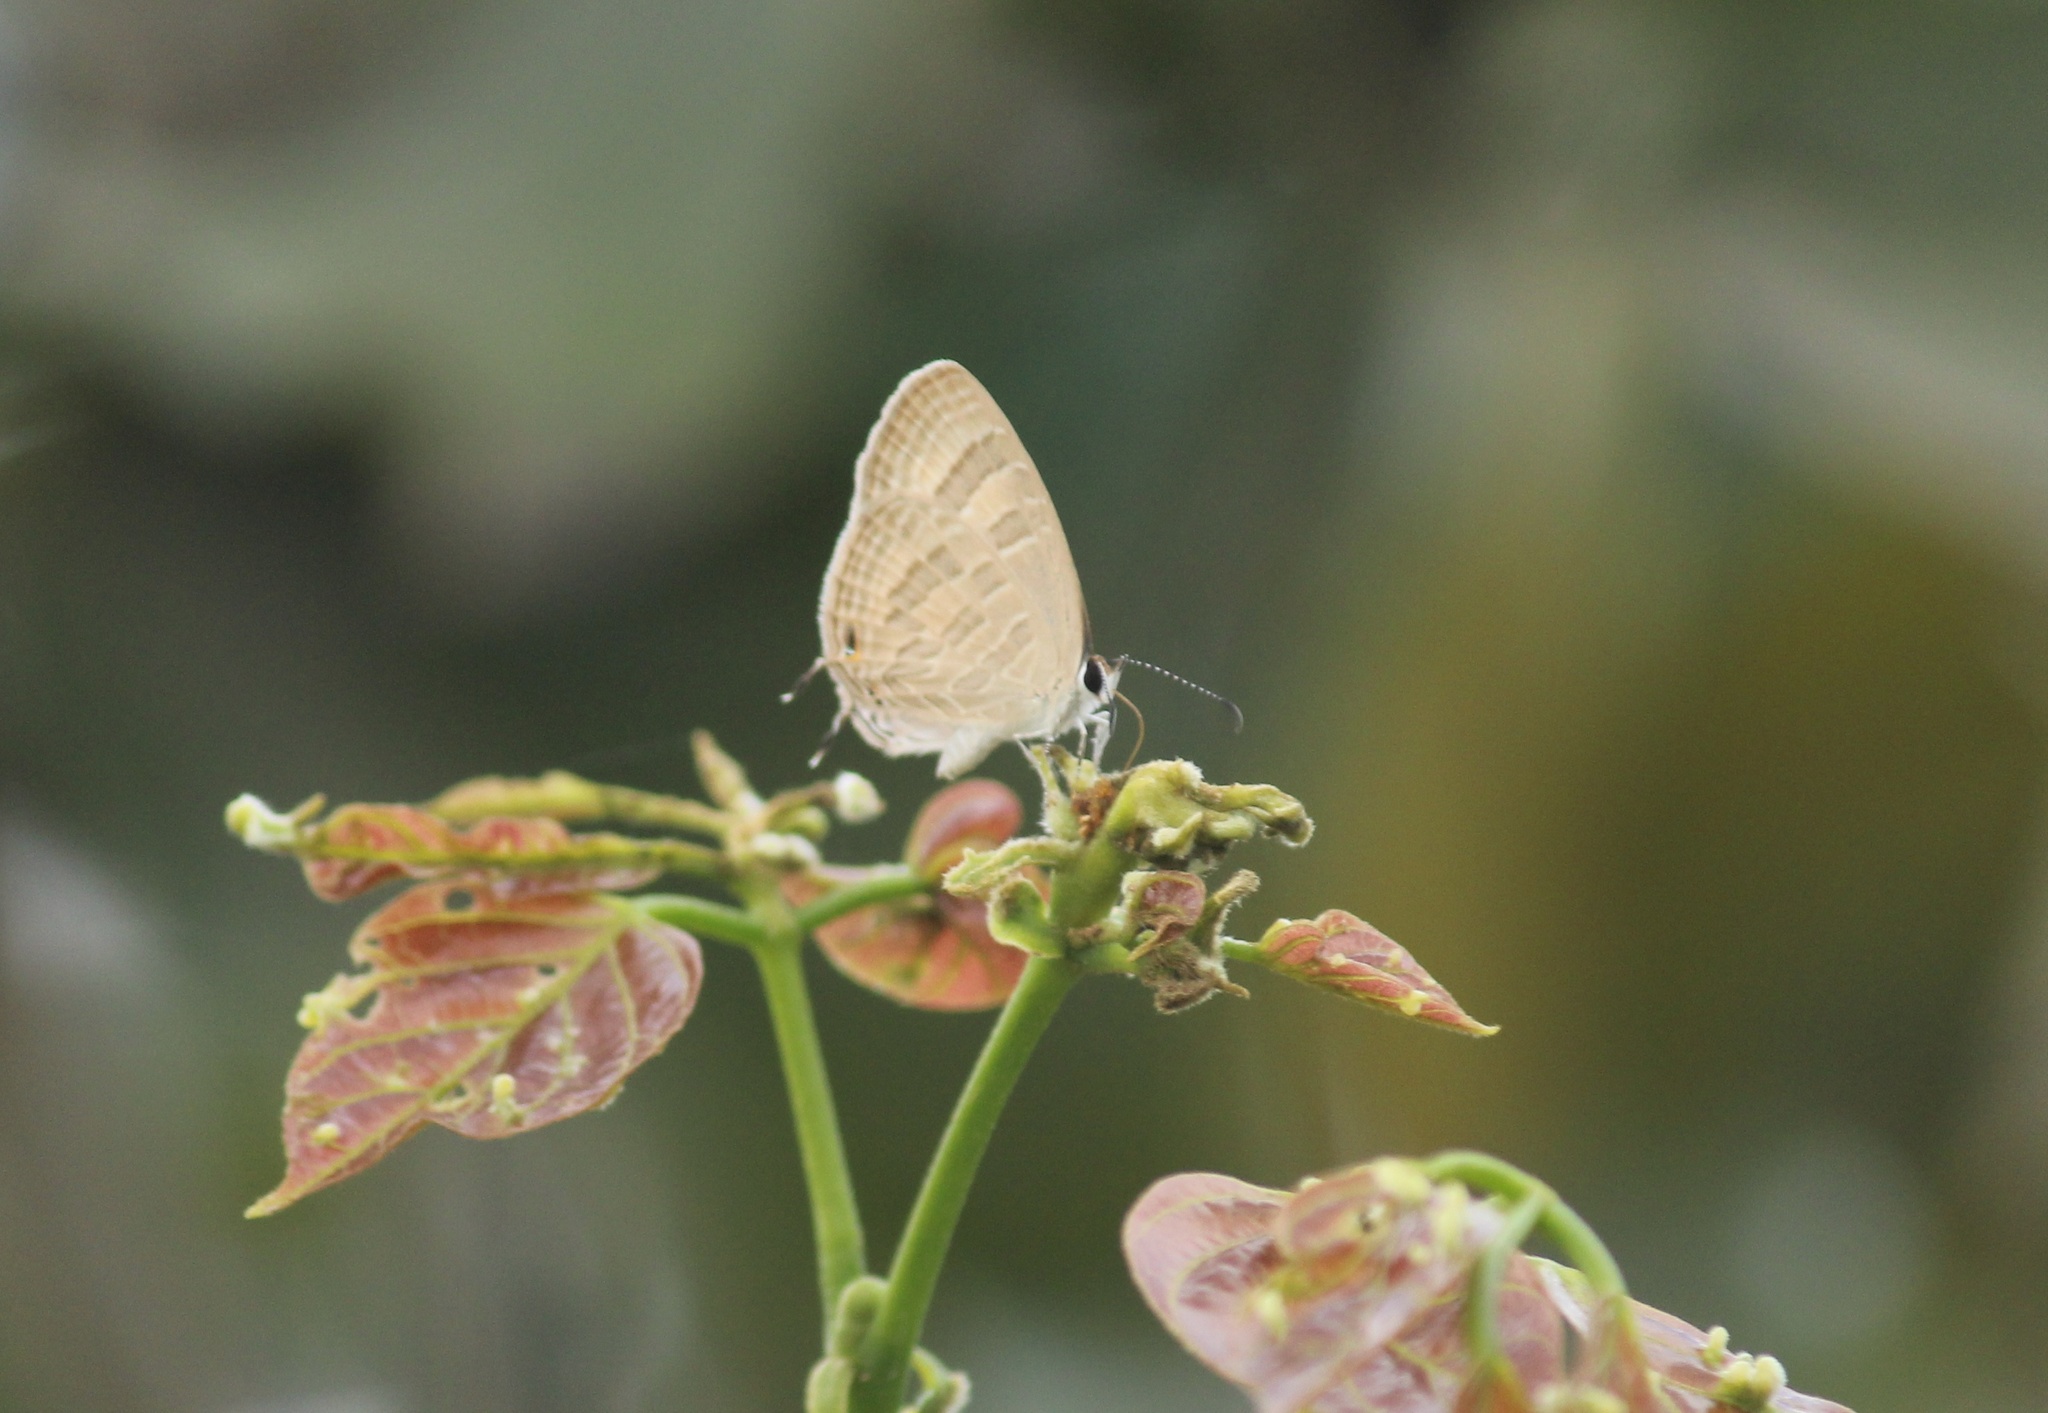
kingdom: Animalia
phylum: Arthropoda
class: Insecta
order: Lepidoptera
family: Lycaenidae
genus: Jamides
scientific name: Jamides celeno
